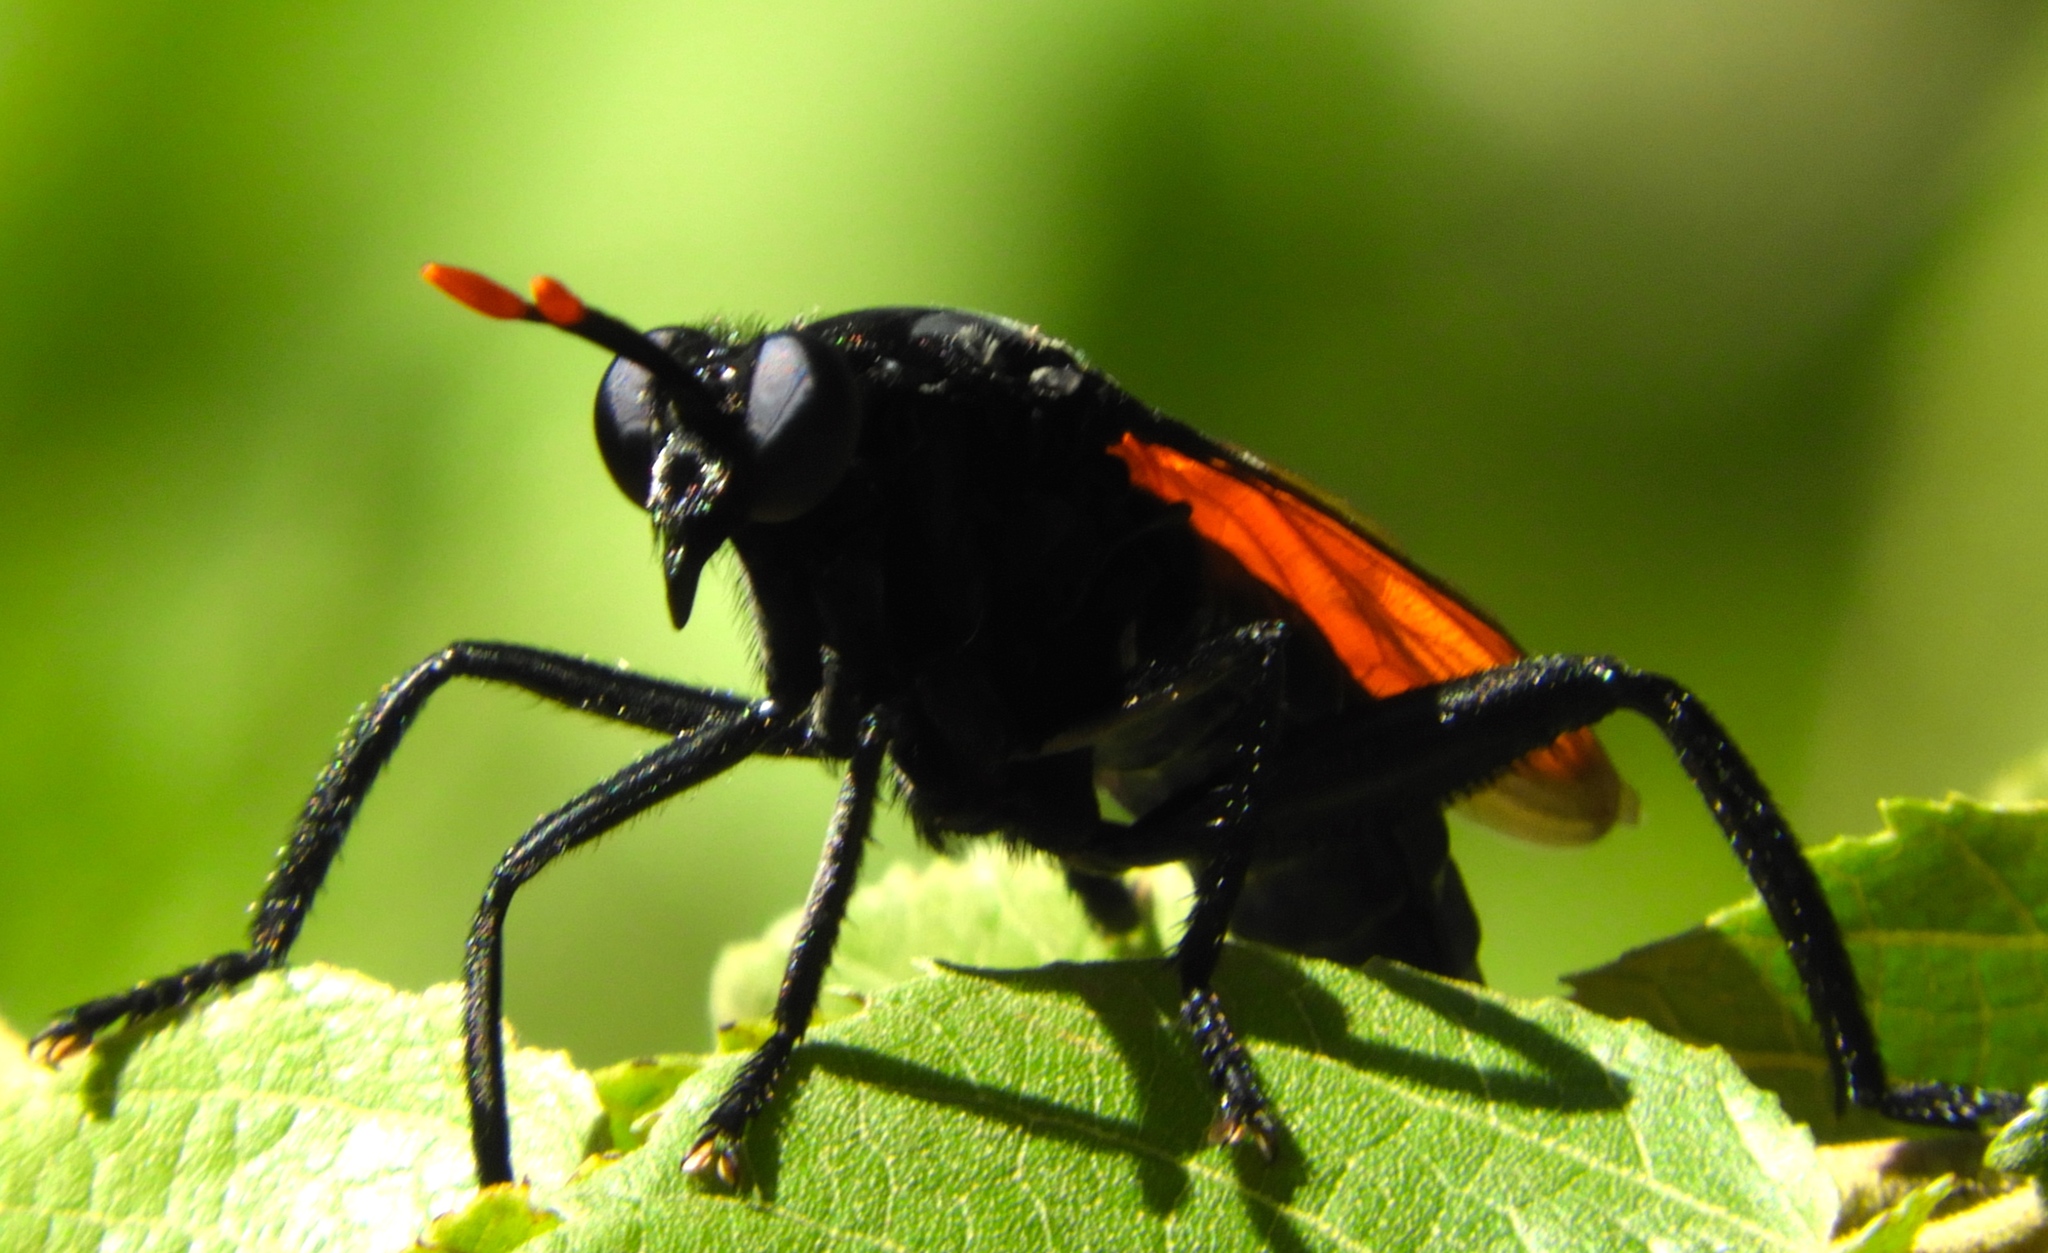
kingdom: Animalia
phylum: Arthropoda
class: Insecta
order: Diptera
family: Mydidae
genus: Mydas
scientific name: Mydas rubidapex
